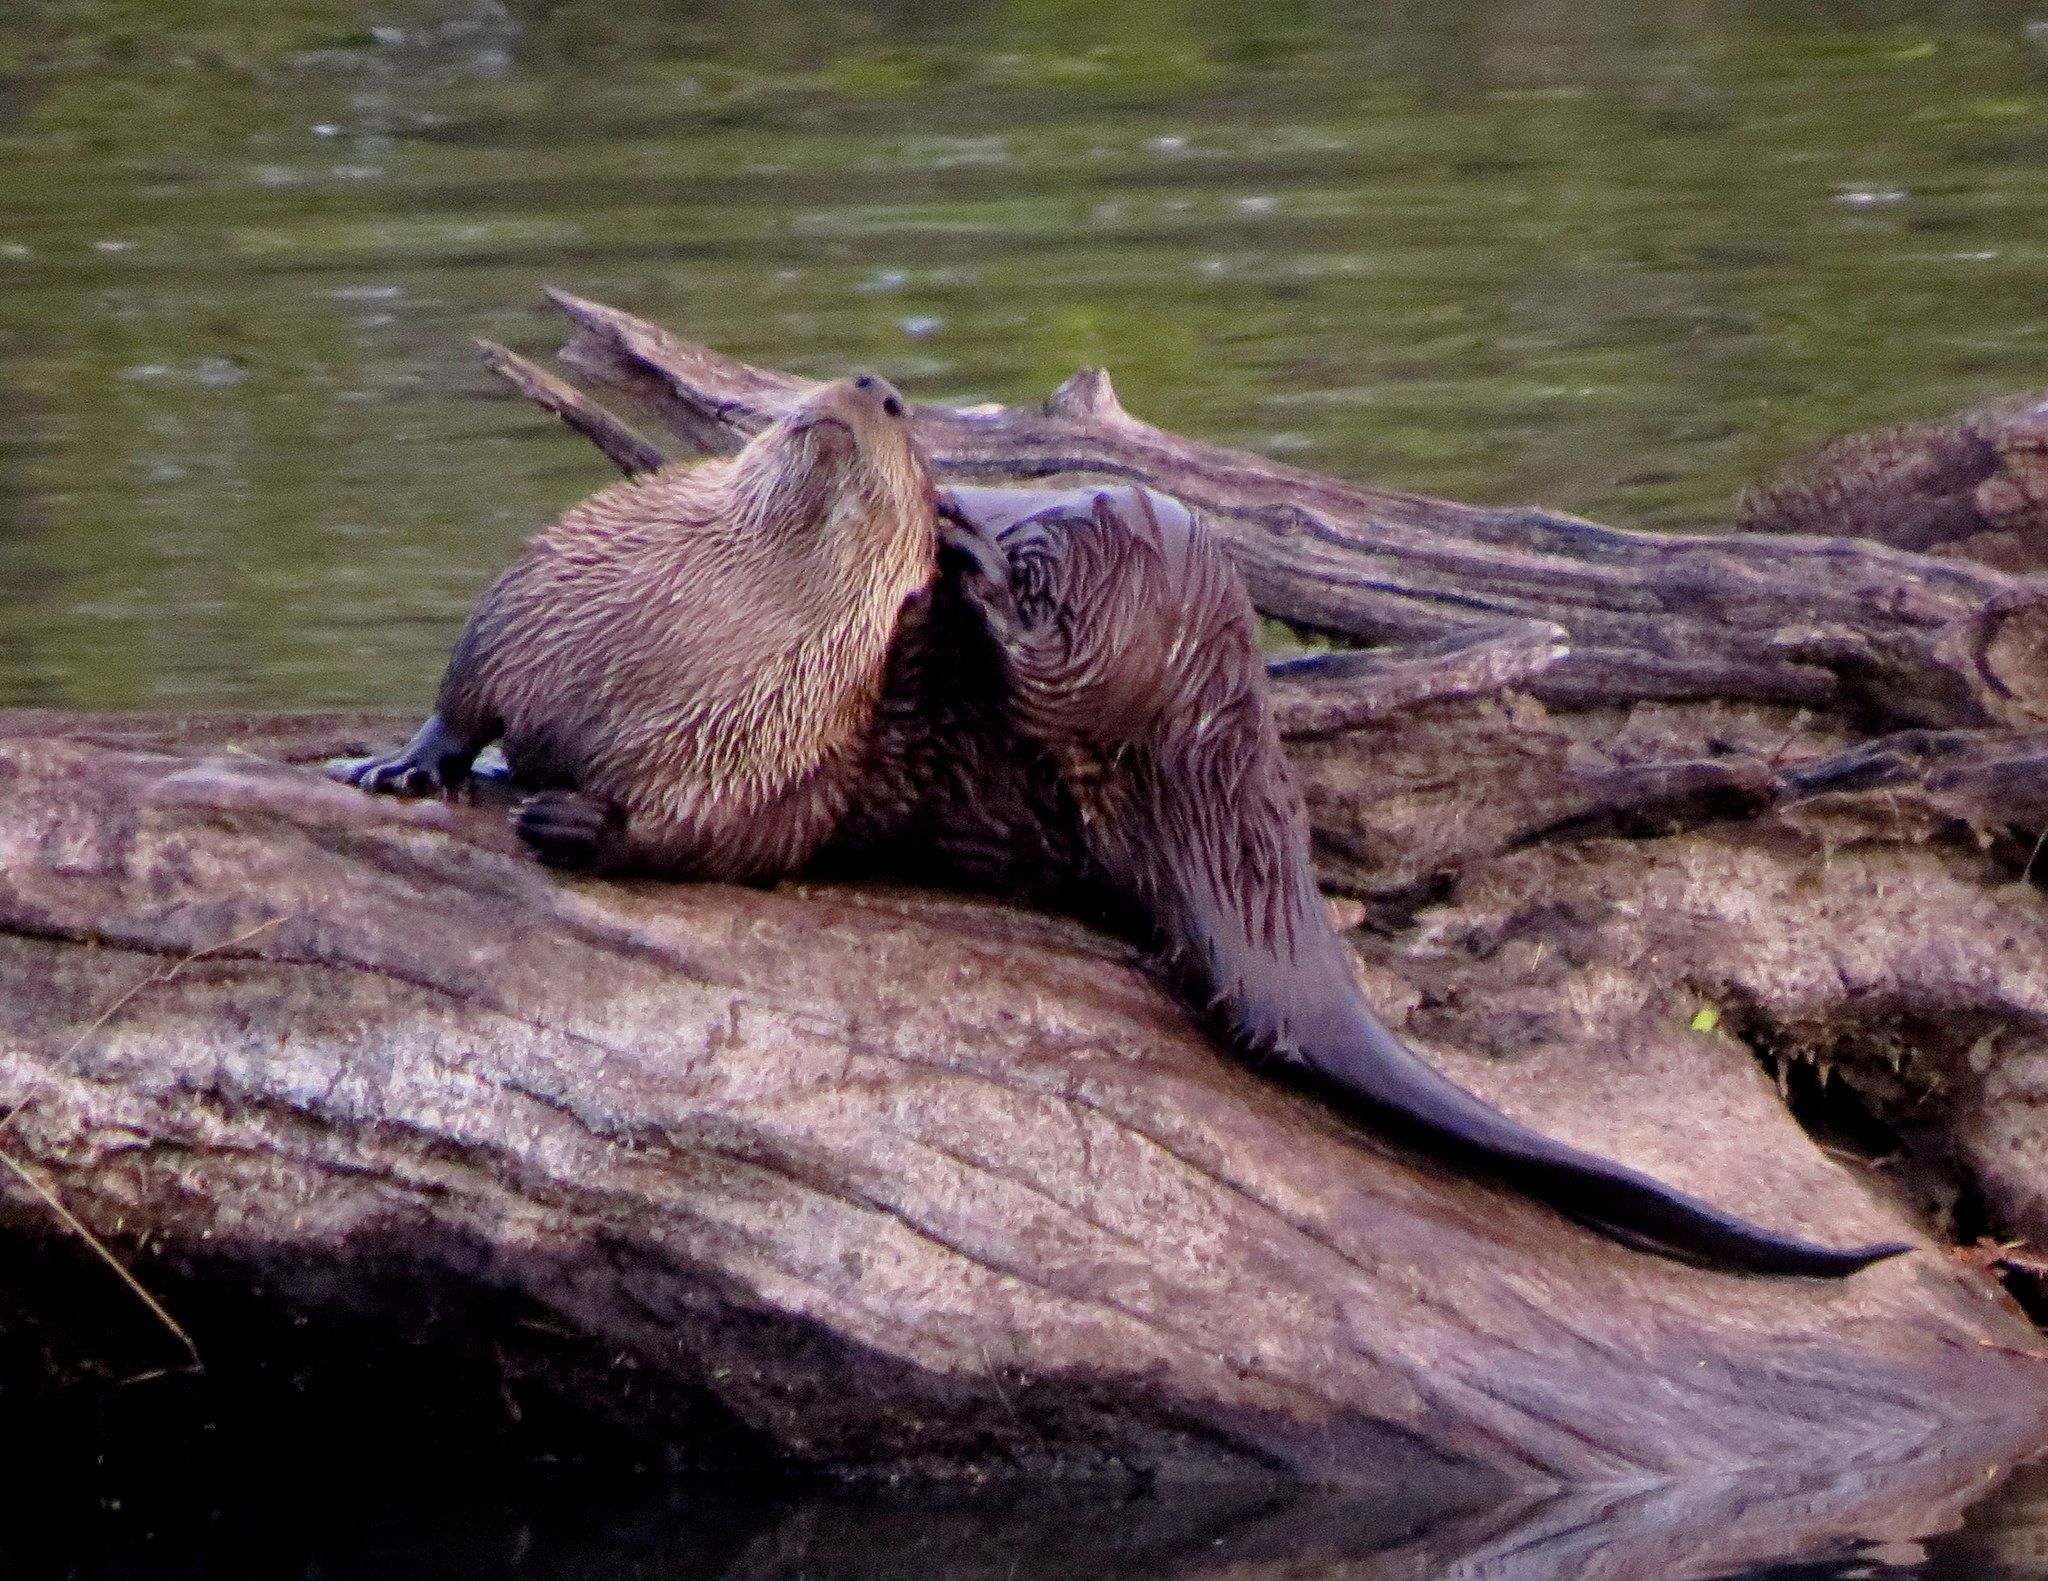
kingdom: Animalia
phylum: Chordata
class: Mammalia
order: Carnivora
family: Mustelidae
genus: Lontra
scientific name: Lontra canadensis
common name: North american river otter
